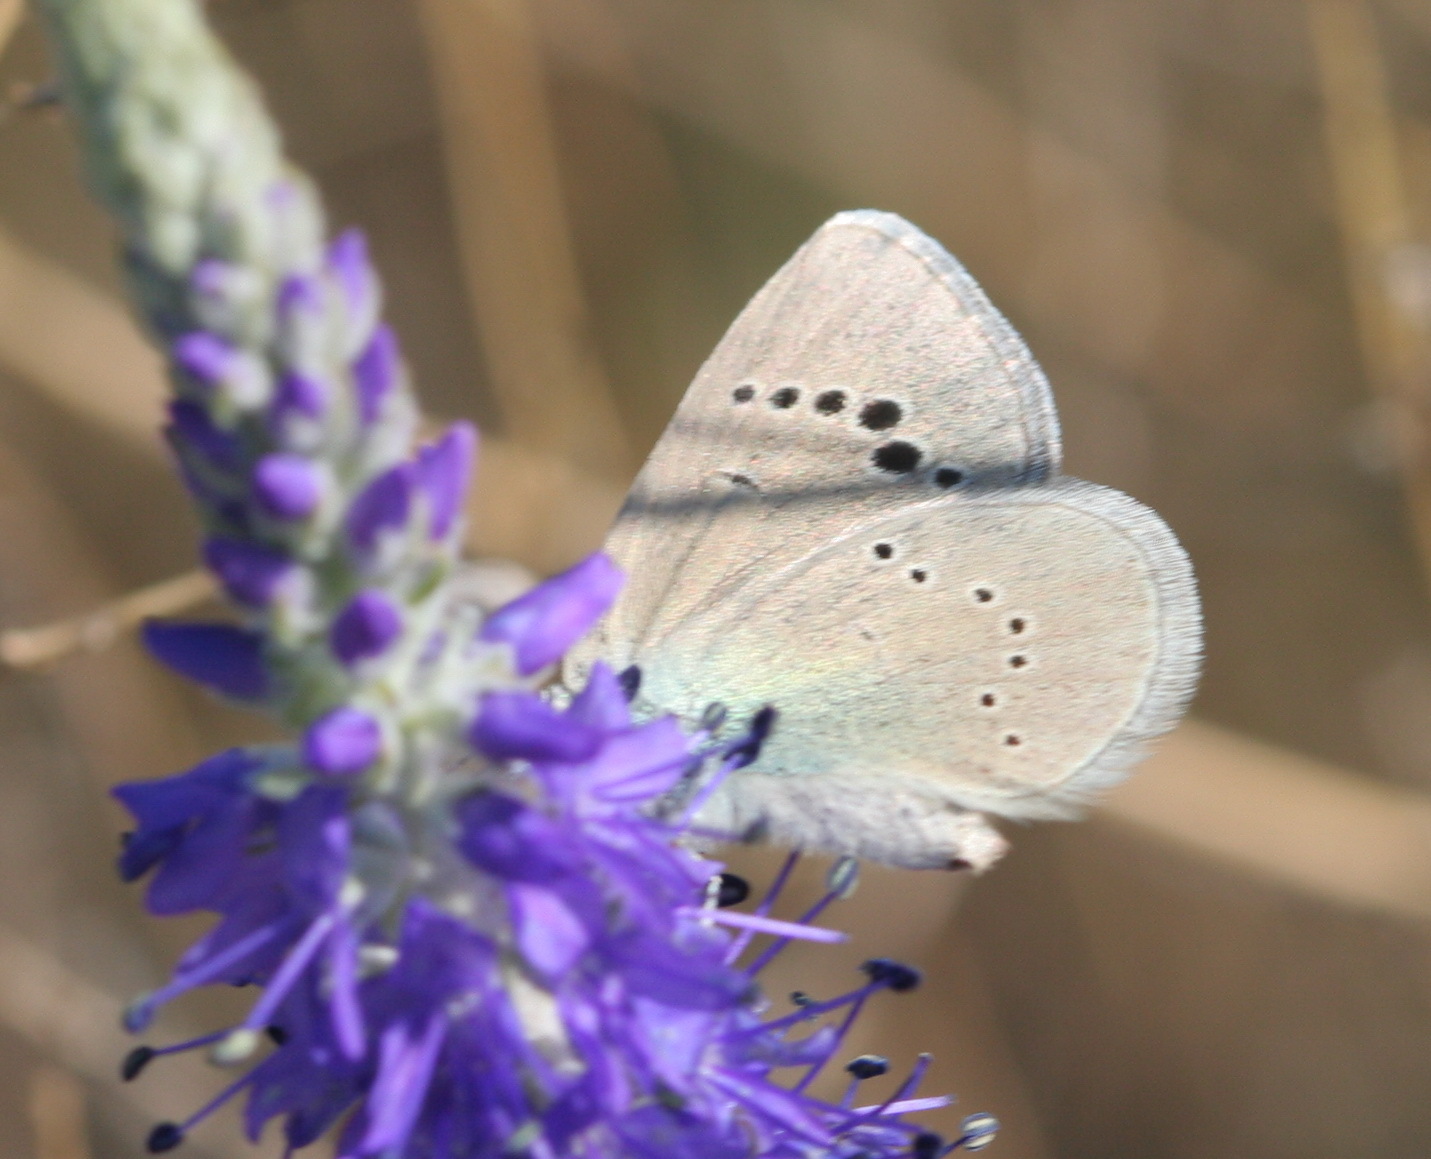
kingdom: Animalia
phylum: Arthropoda
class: Insecta
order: Lepidoptera
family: Lycaenidae
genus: Glaucopsyche
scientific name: Glaucopsyche alexis
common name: Green-underside blue
